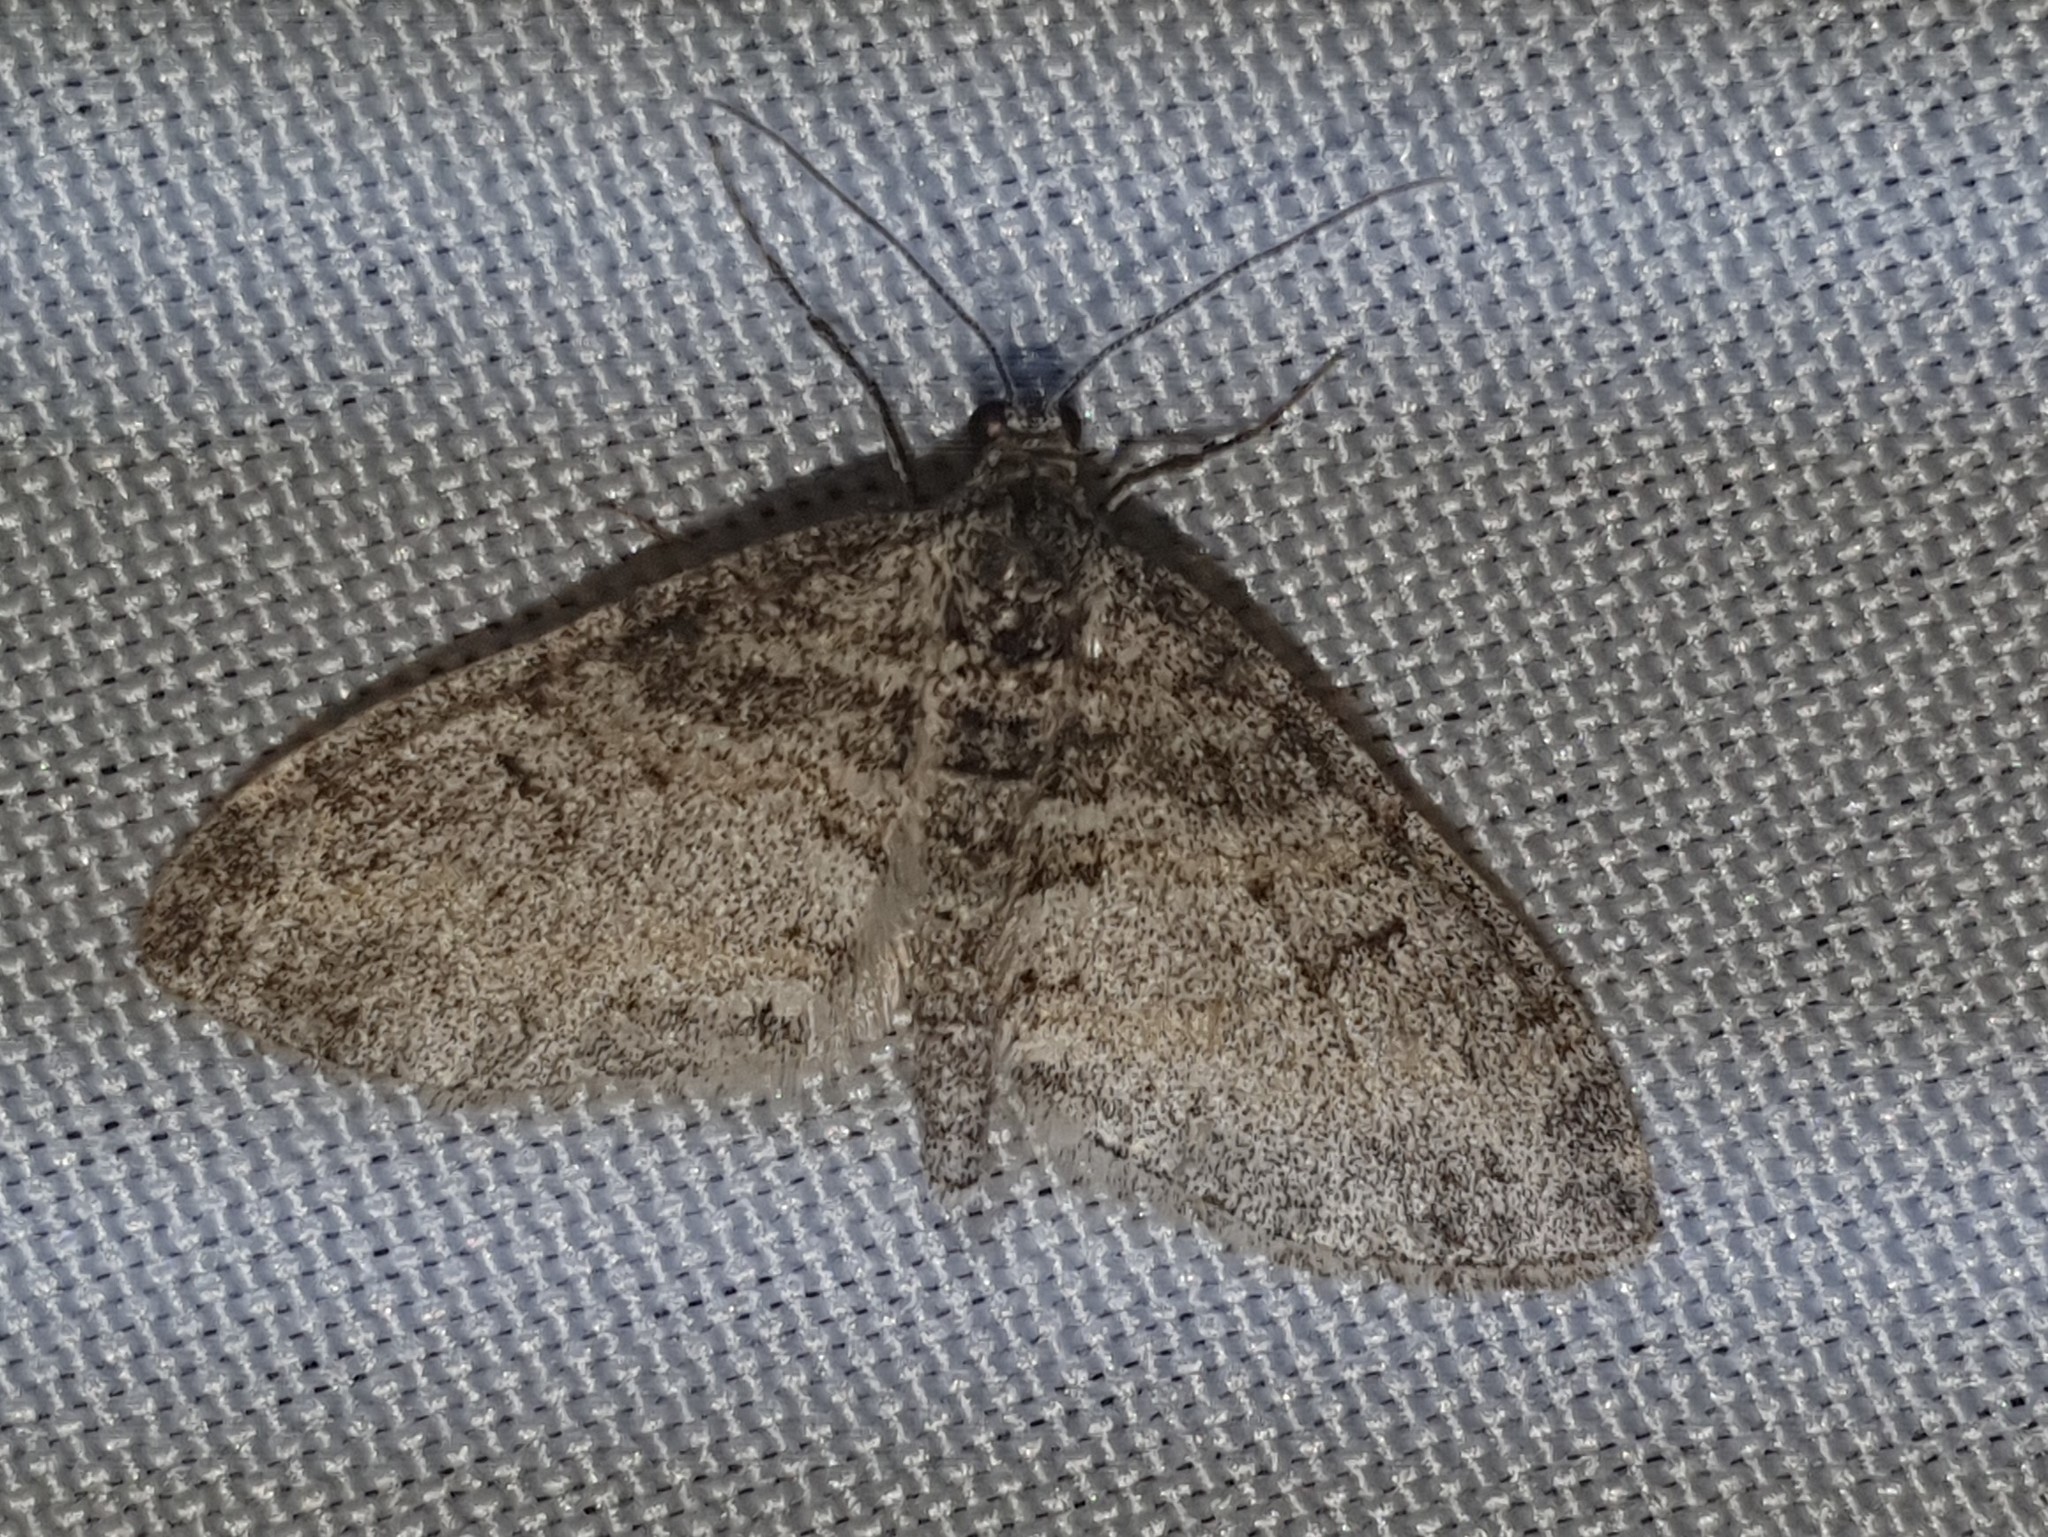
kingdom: Animalia
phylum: Arthropoda
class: Insecta
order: Lepidoptera
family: Geometridae
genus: Lobophora
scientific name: Lobophora halterata
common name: Seraphim
